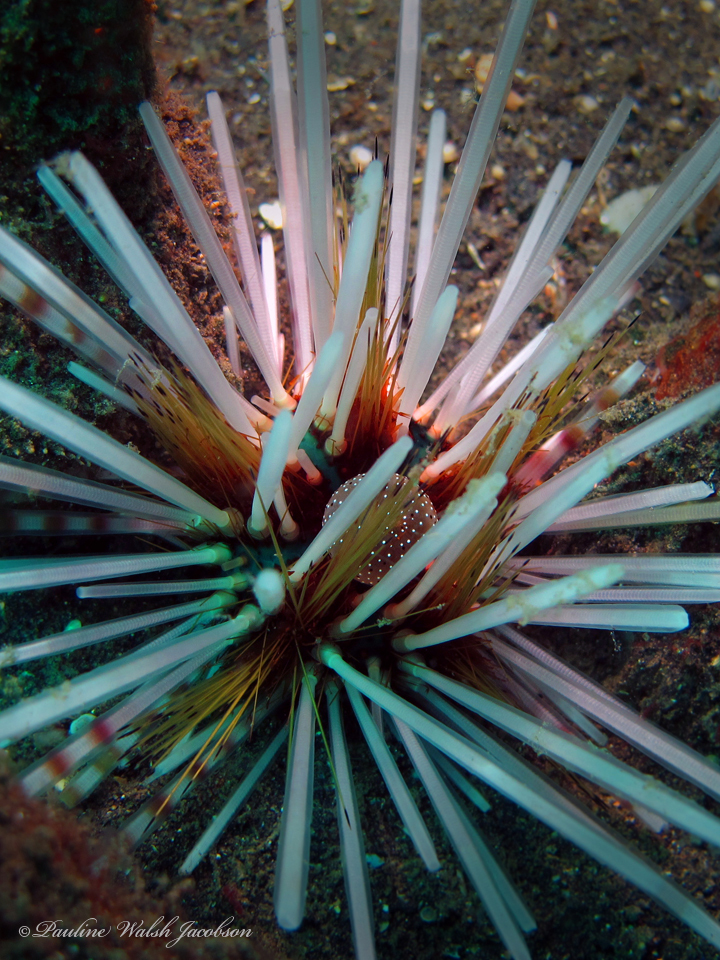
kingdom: Animalia
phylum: Echinodermata
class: Echinoidea
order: Diadematoida
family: Diadematidae
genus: Echinothrix
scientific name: Echinothrix calamaris
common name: Banded sea urchin
